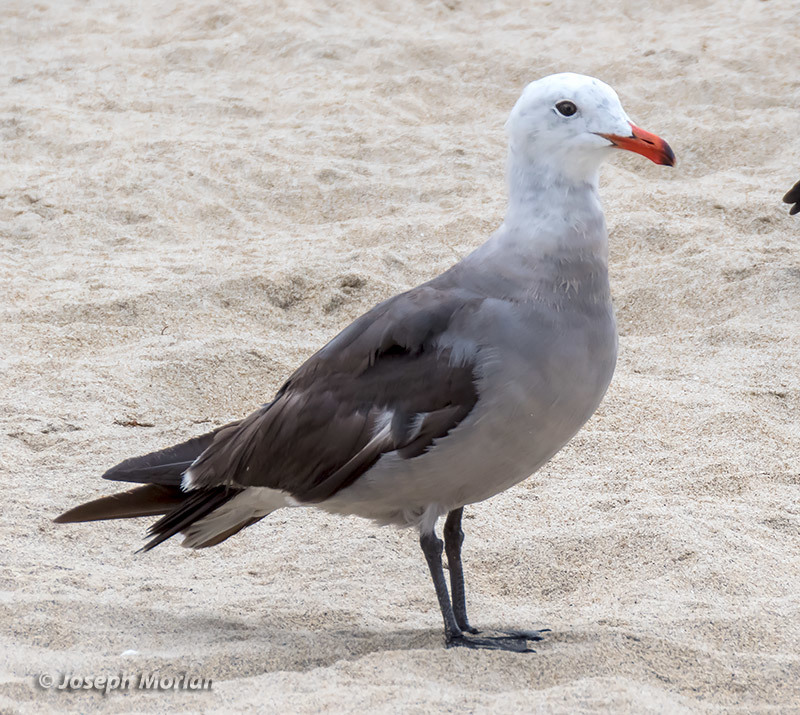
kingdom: Animalia
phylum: Chordata
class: Aves
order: Charadriiformes
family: Laridae
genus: Larus
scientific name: Larus heermanni
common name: Heermann's gull
